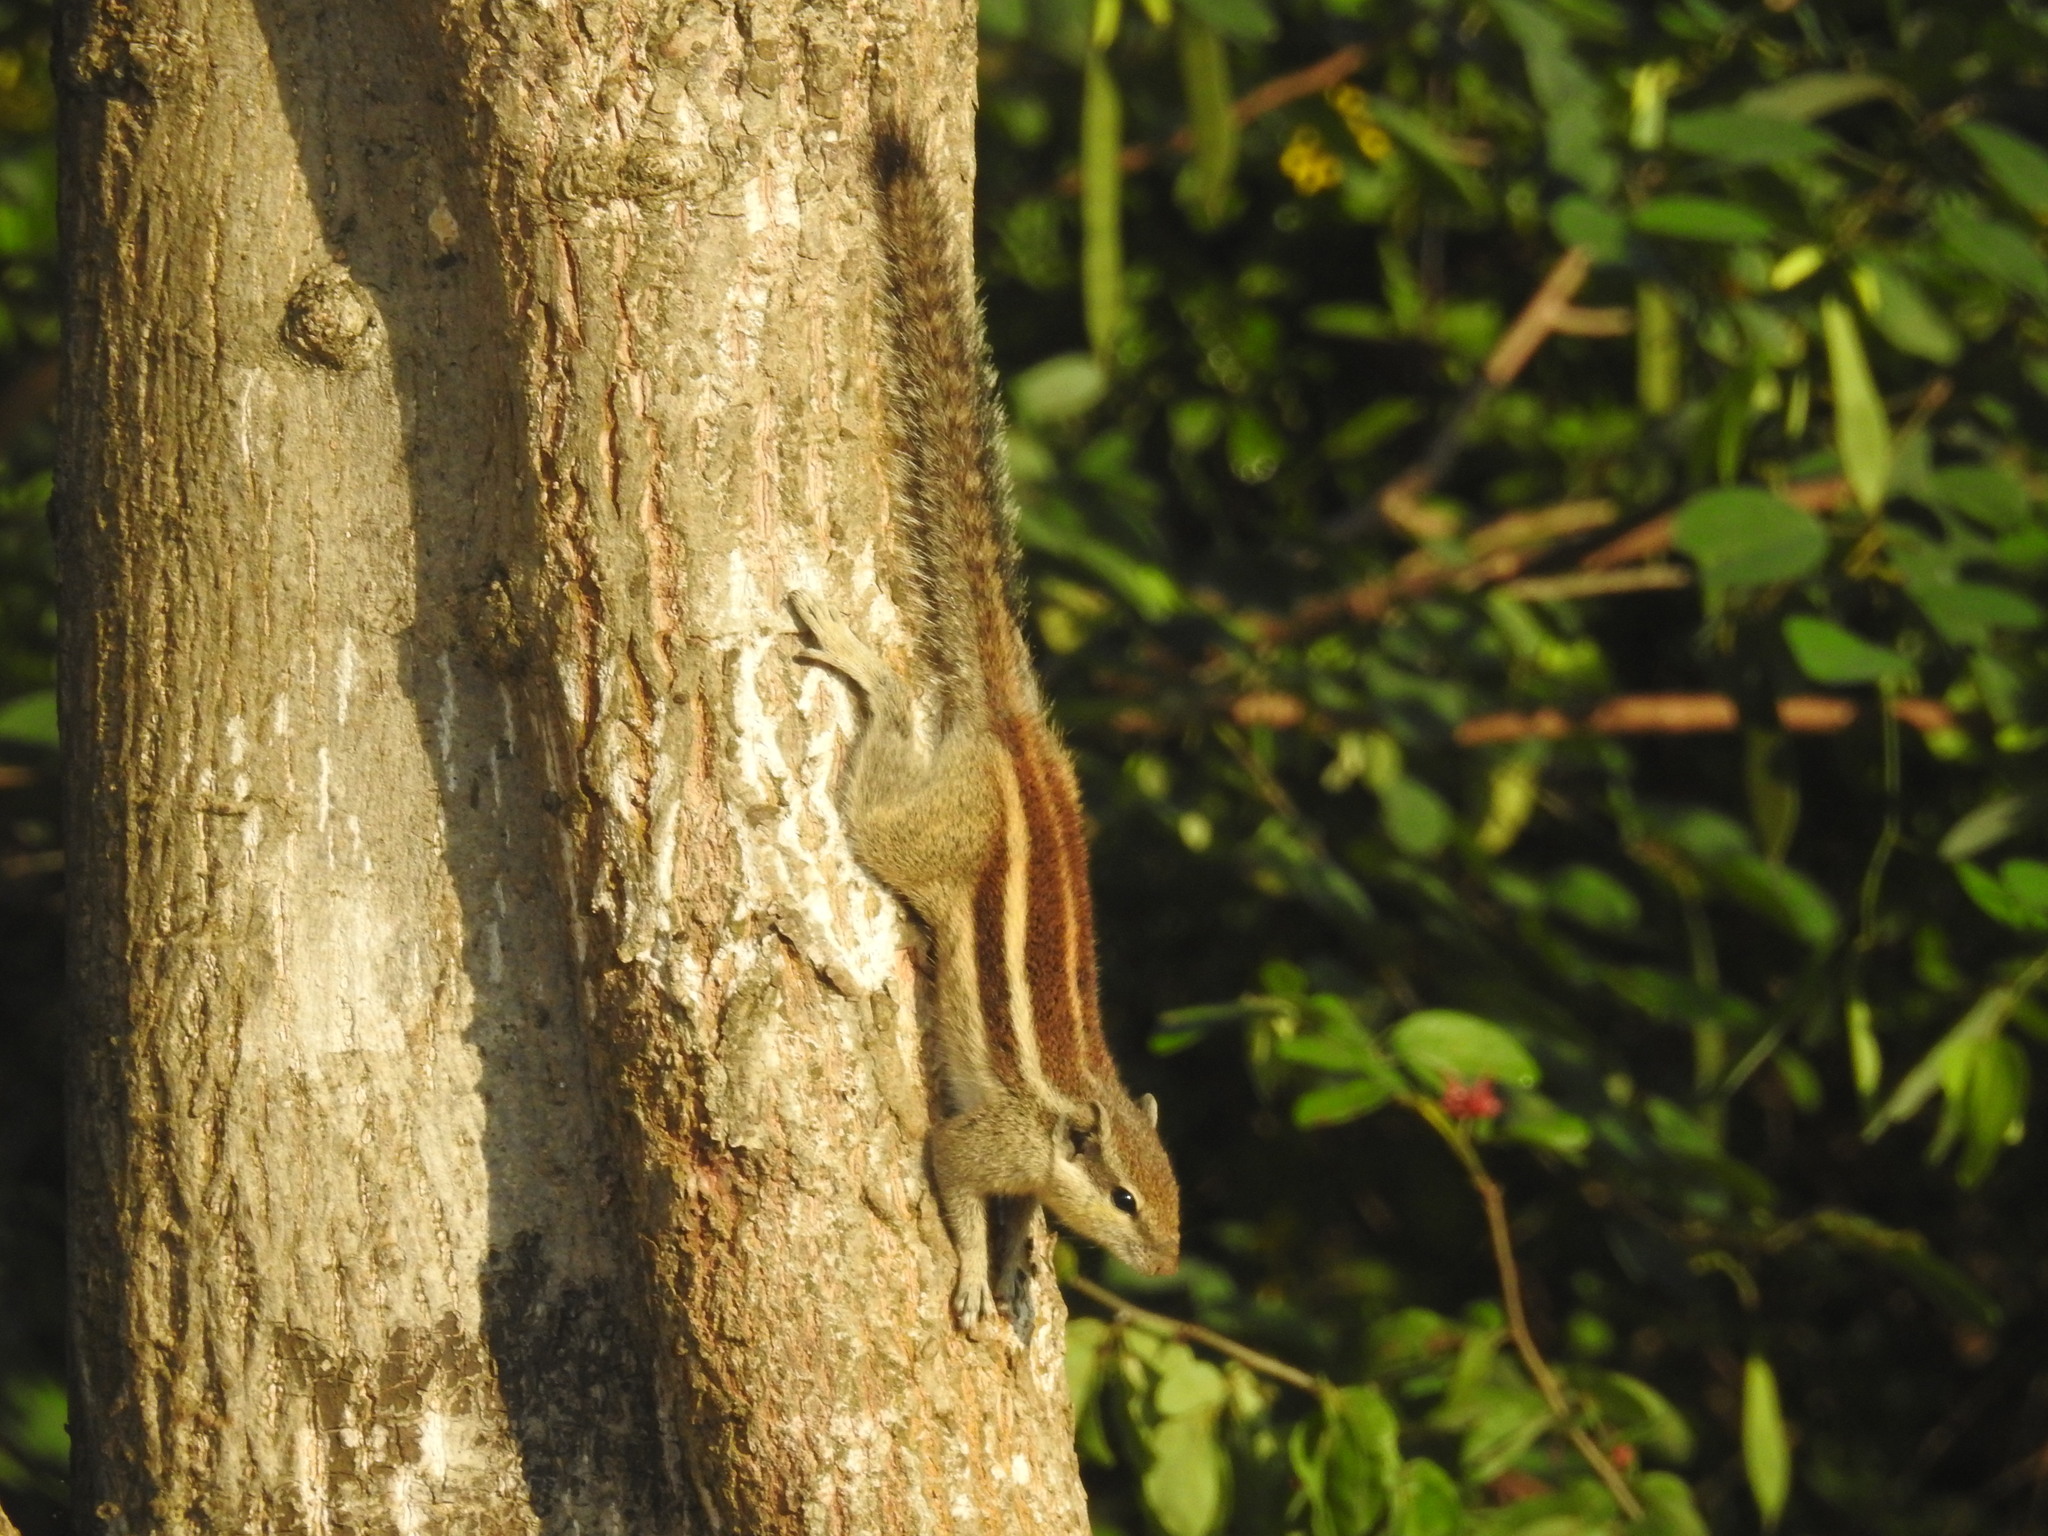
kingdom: Animalia
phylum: Chordata
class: Mammalia
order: Rodentia
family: Sciuridae
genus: Funambulus
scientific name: Funambulus pennantii
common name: Northern palm squirrel
